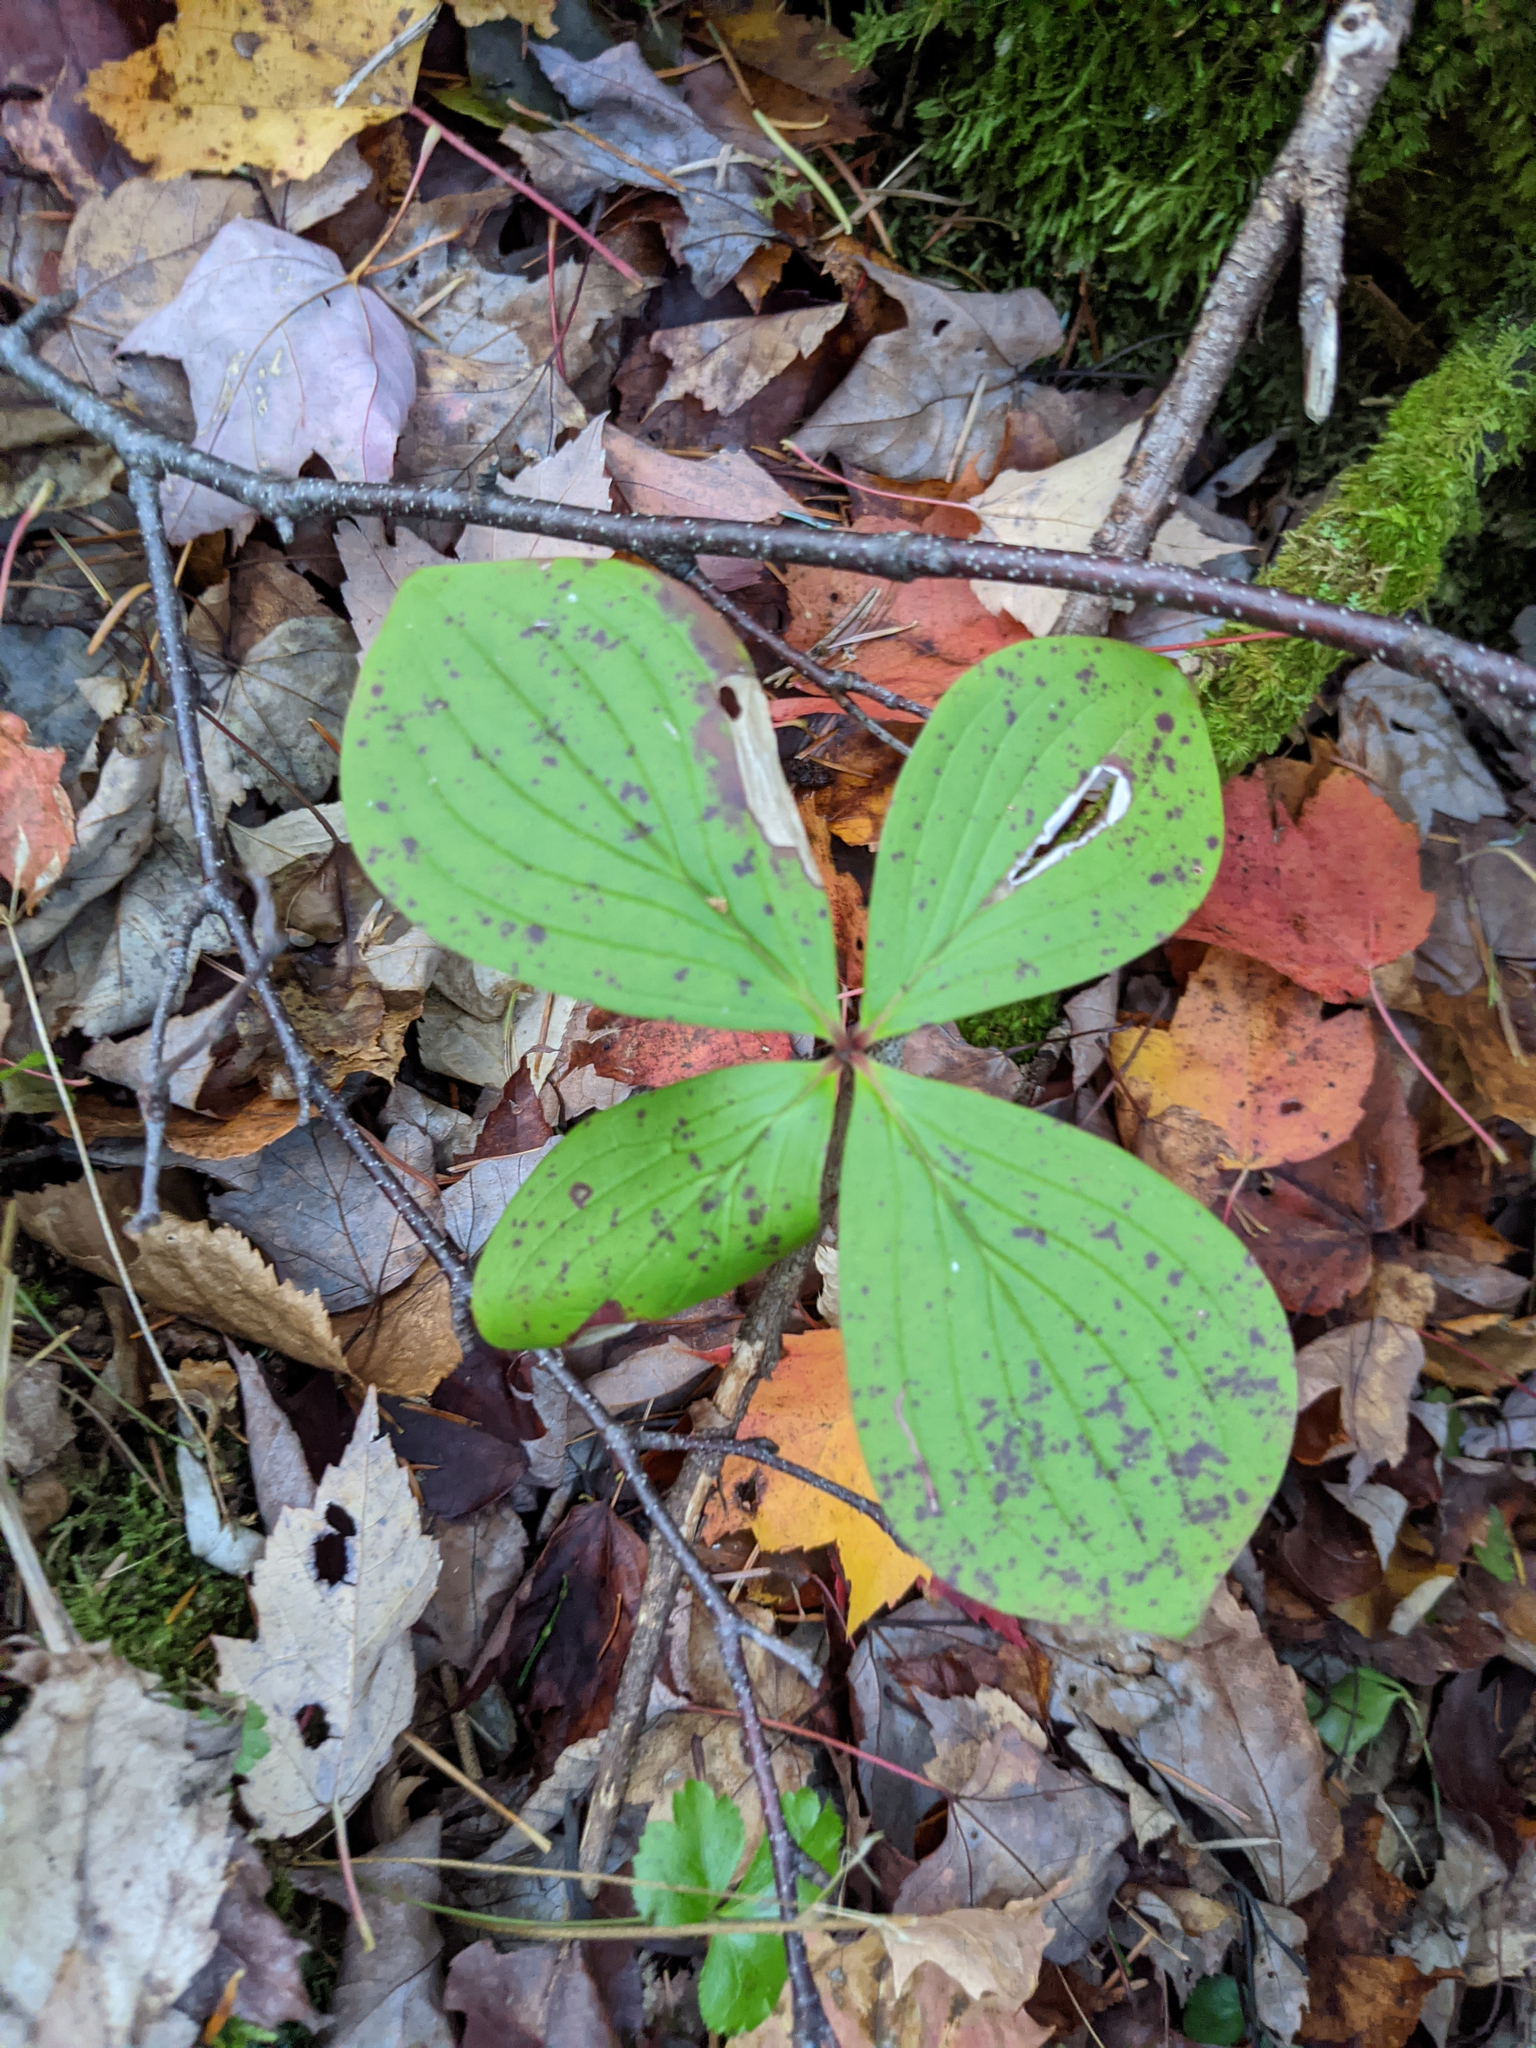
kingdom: Plantae
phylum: Tracheophyta
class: Magnoliopsida
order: Cornales
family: Cornaceae
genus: Cornus
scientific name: Cornus canadensis
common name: Creeping dogwood
